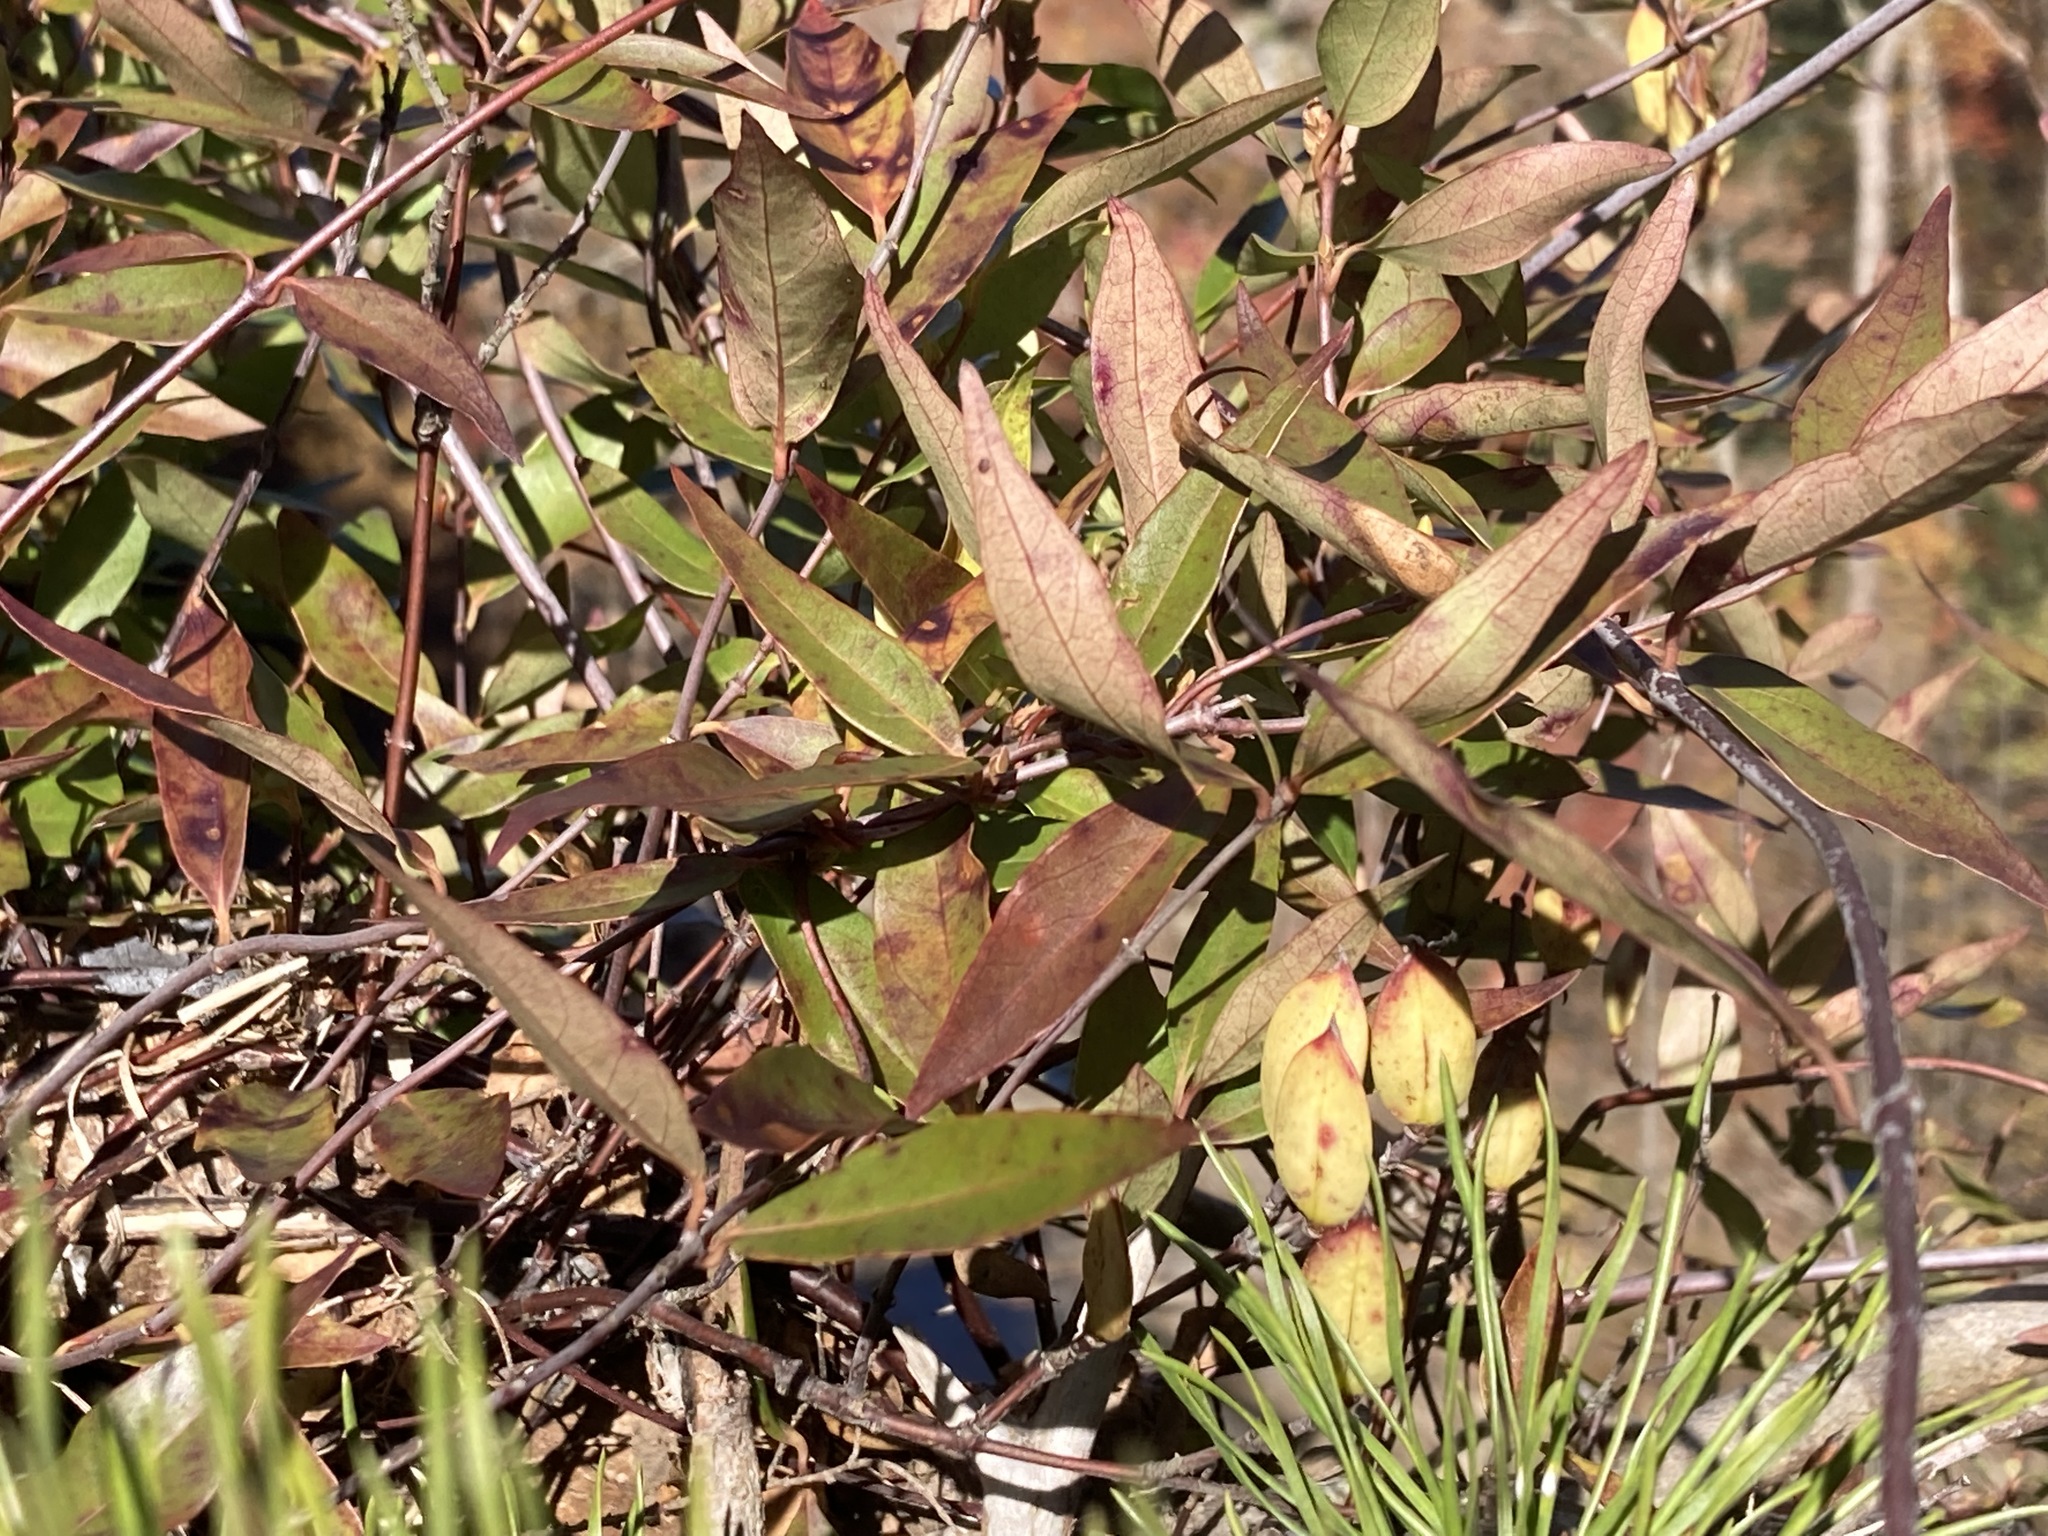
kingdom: Plantae
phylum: Tracheophyta
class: Magnoliopsida
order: Gentianales
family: Gelsemiaceae
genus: Gelsemium
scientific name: Gelsemium sempervirens
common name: Carolina-jasmine
